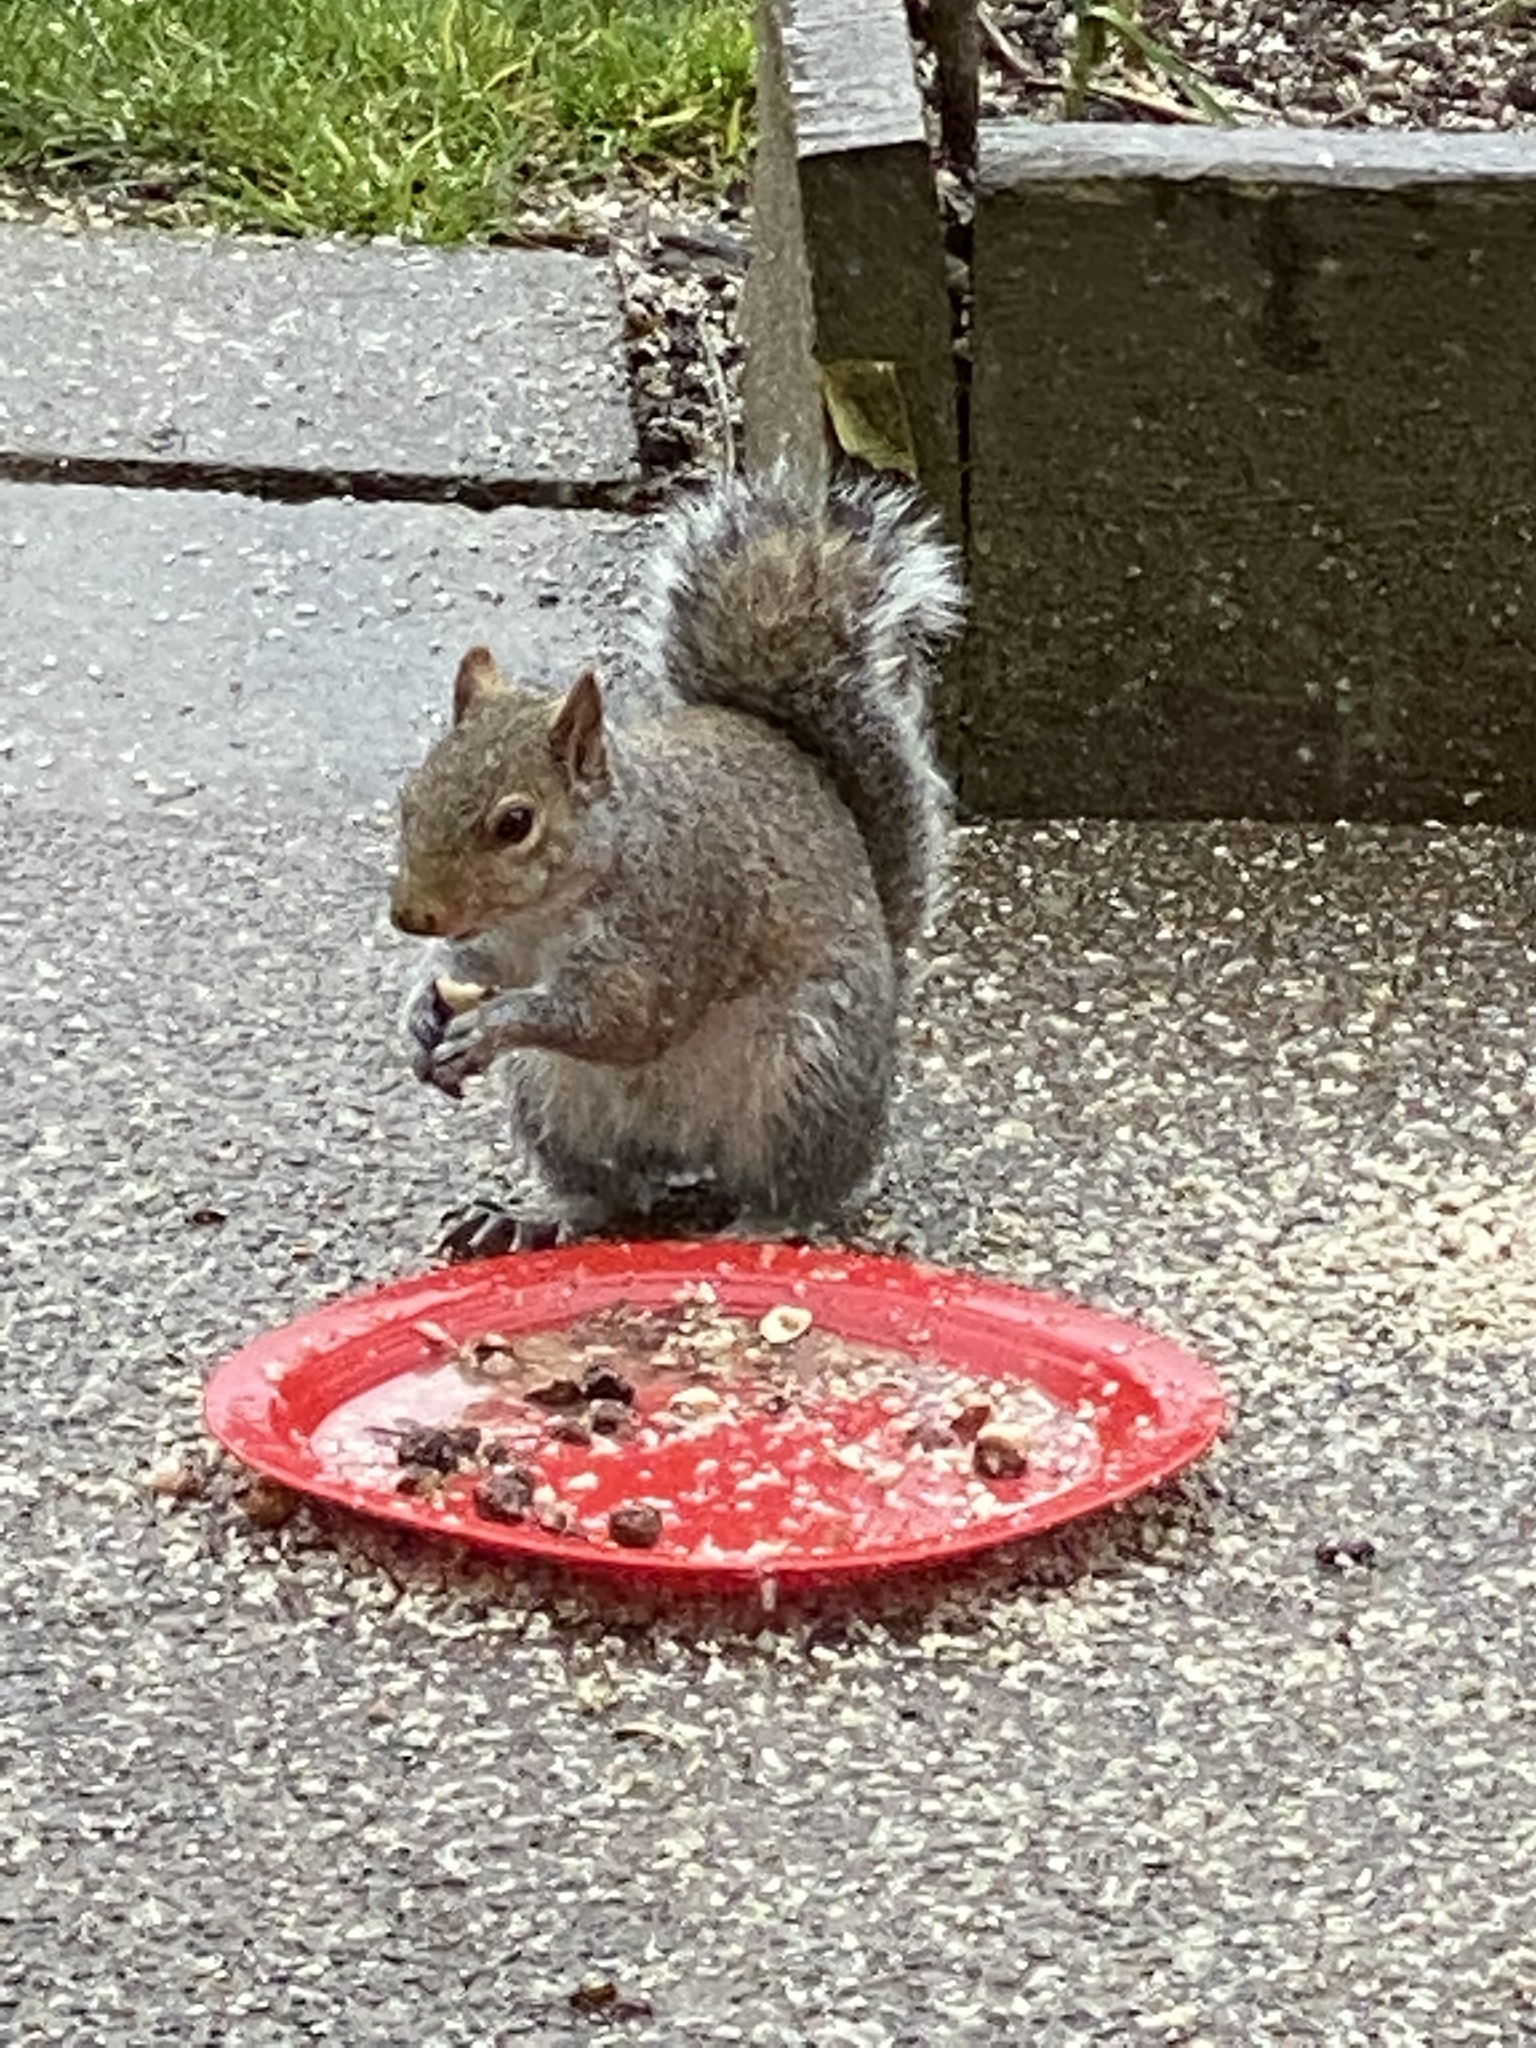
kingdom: Animalia
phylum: Chordata
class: Mammalia
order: Rodentia
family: Sciuridae
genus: Sciurus
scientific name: Sciurus carolinensis
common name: Eastern gray squirrel
